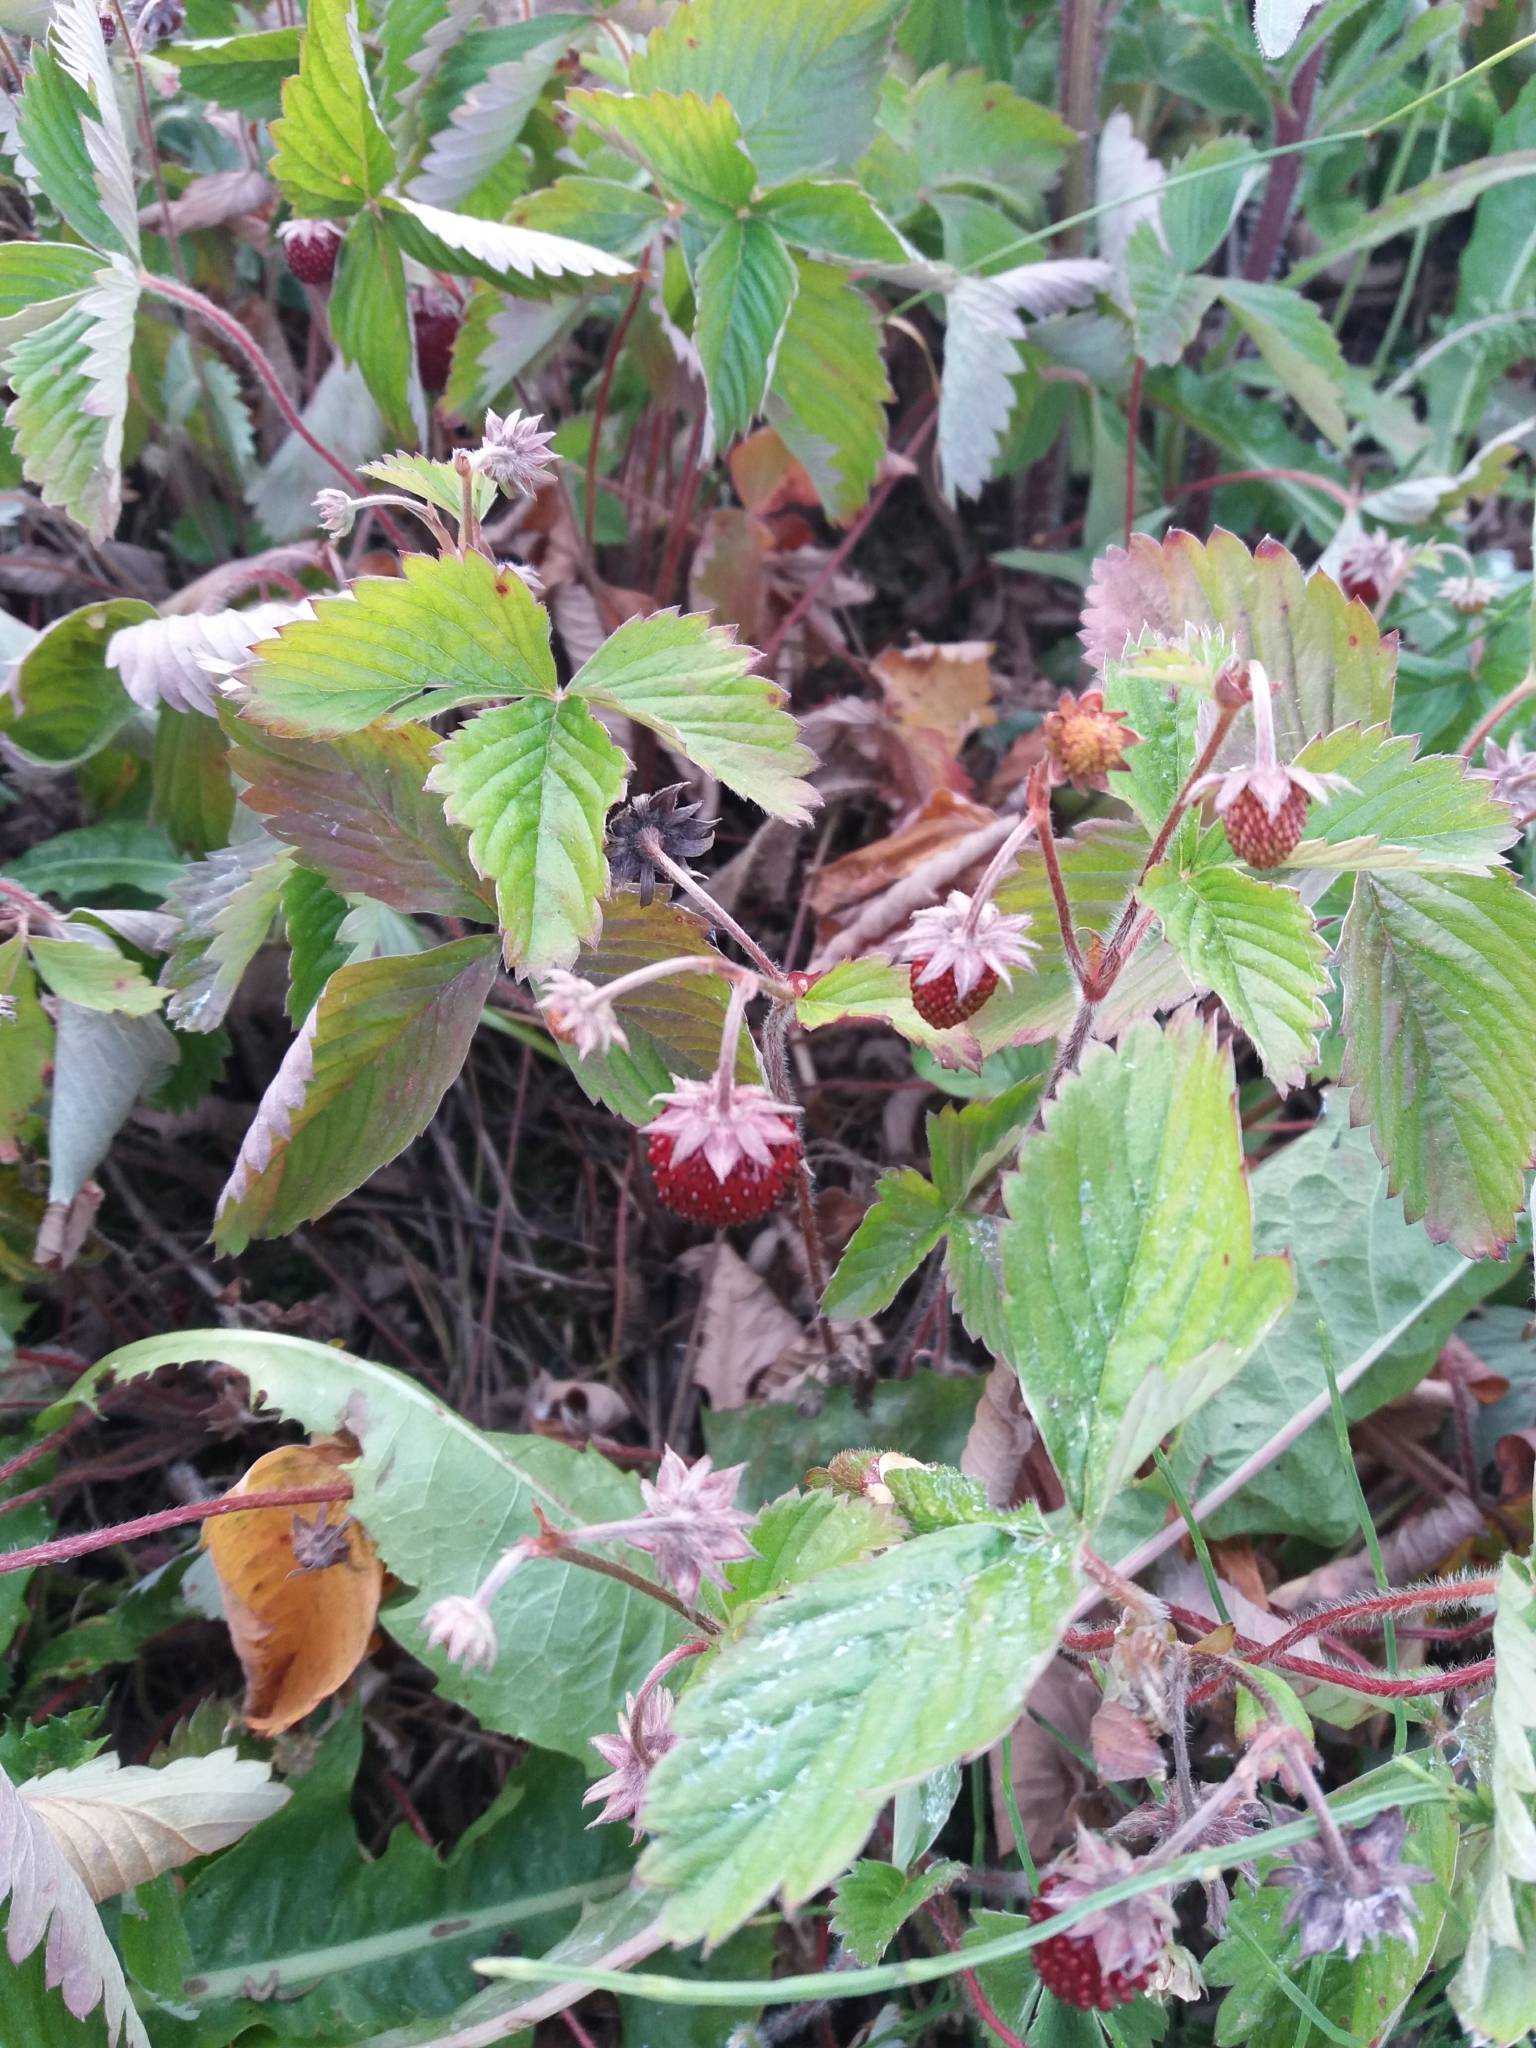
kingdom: Plantae
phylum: Tracheophyta
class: Magnoliopsida
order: Rosales
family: Rosaceae
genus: Fragaria
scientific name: Fragaria vesca
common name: Wild strawberry
